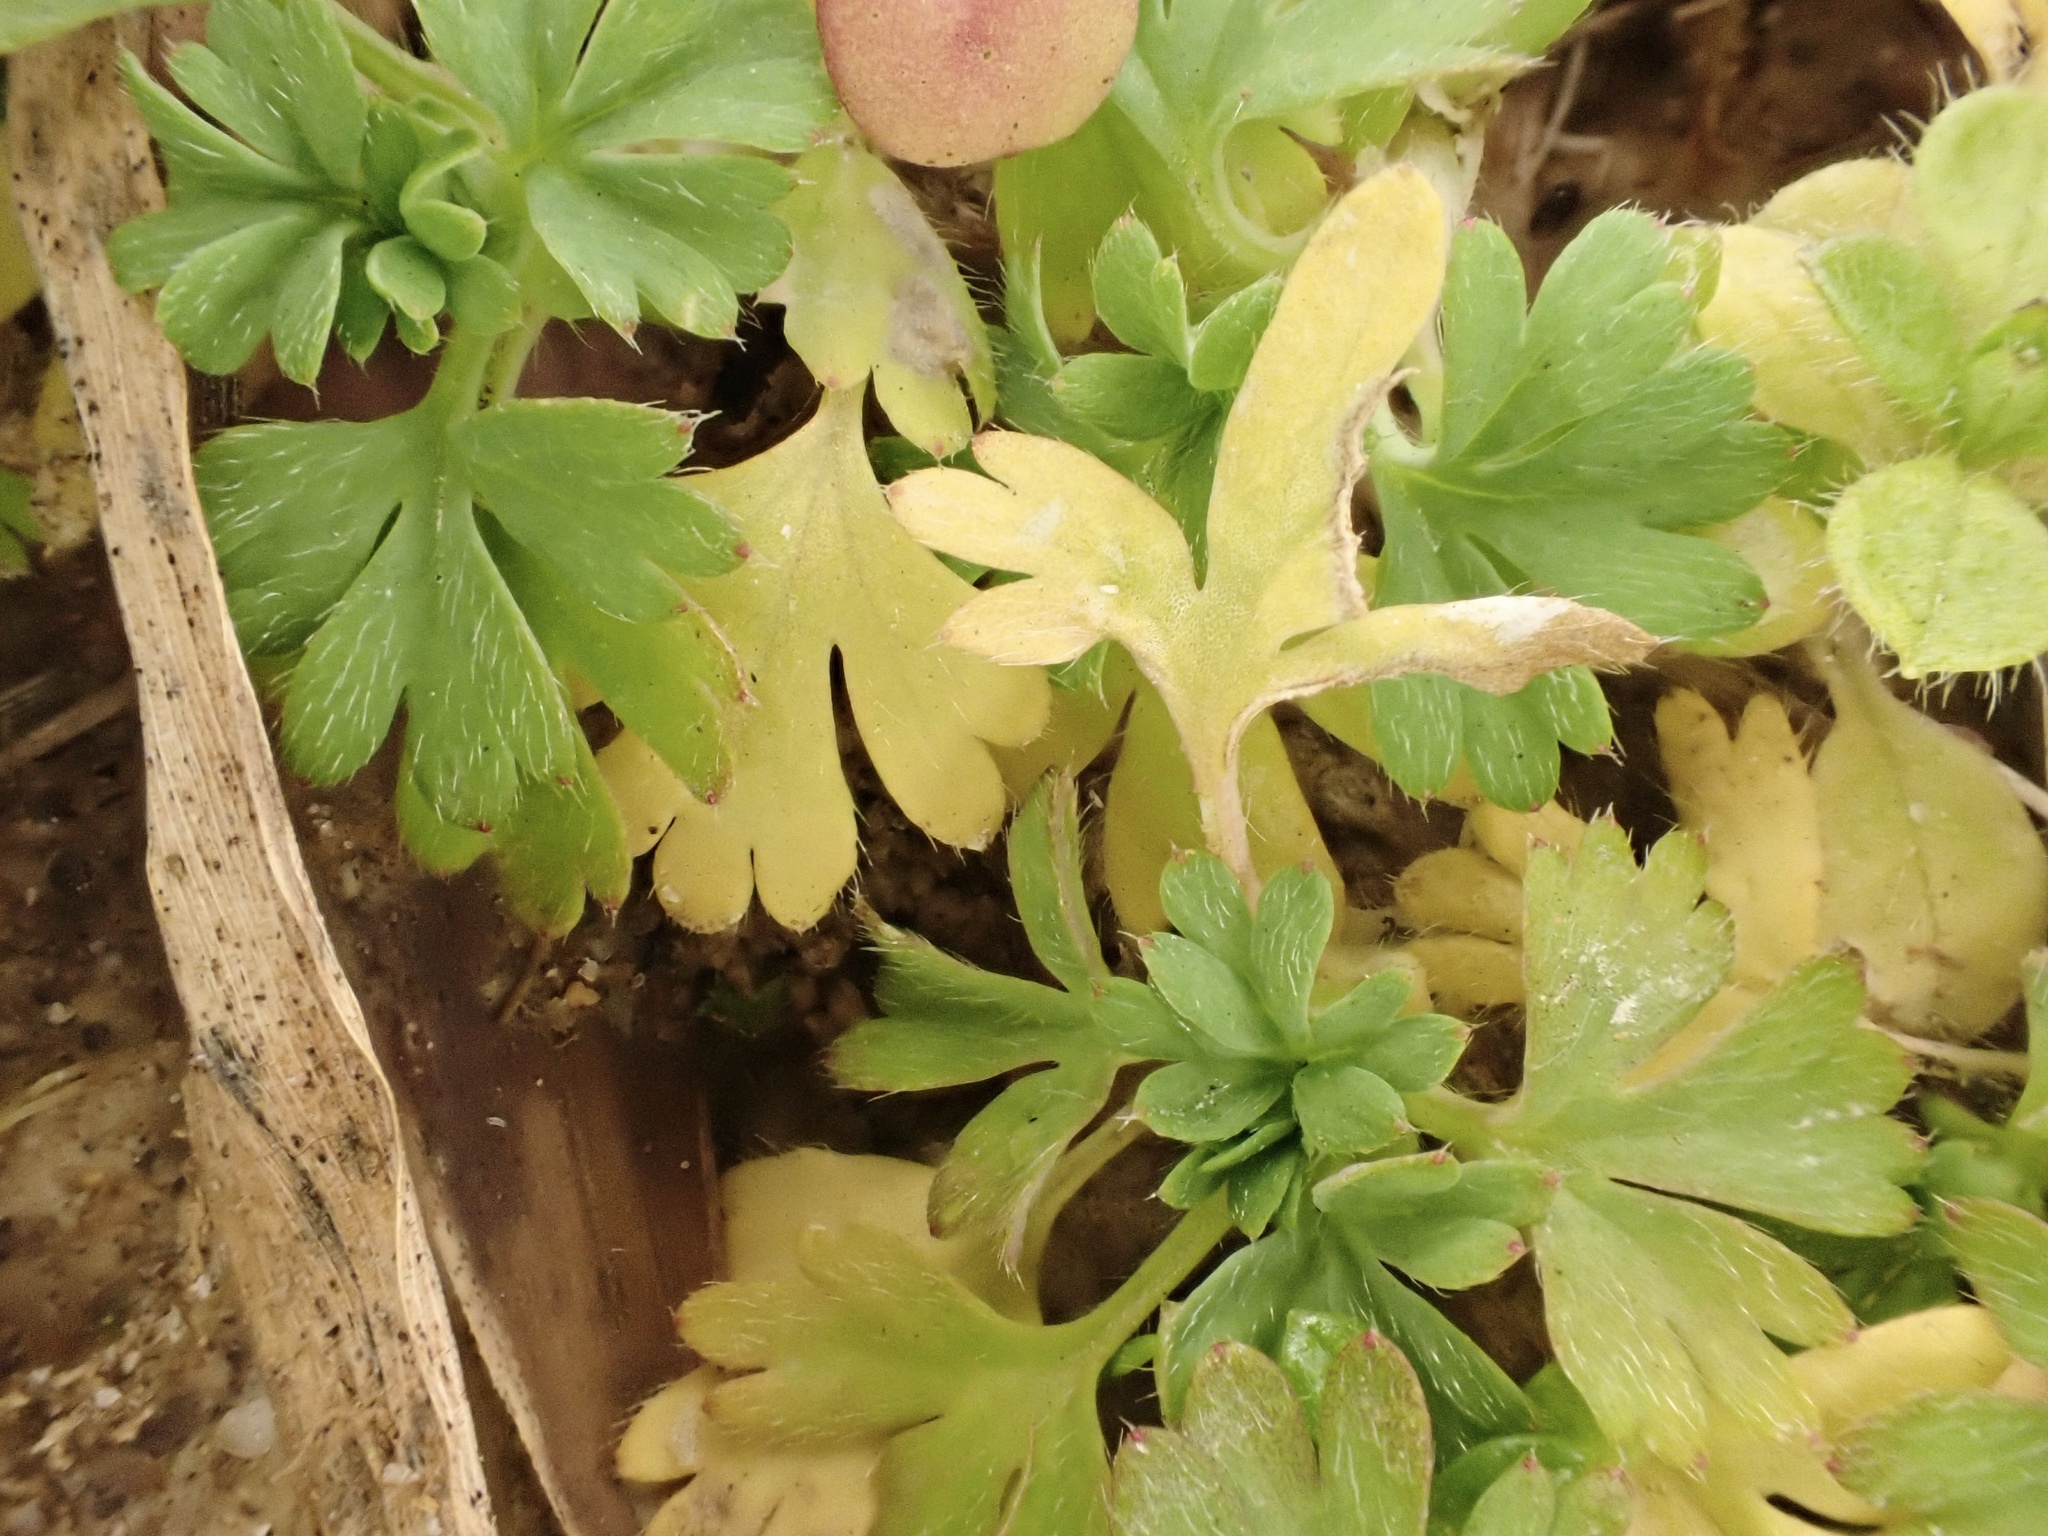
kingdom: Plantae
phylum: Tracheophyta
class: Magnoliopsida
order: Rosales
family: Rosaceae
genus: Aphanes
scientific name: Aphanes australis
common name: Slender parsley-piert
